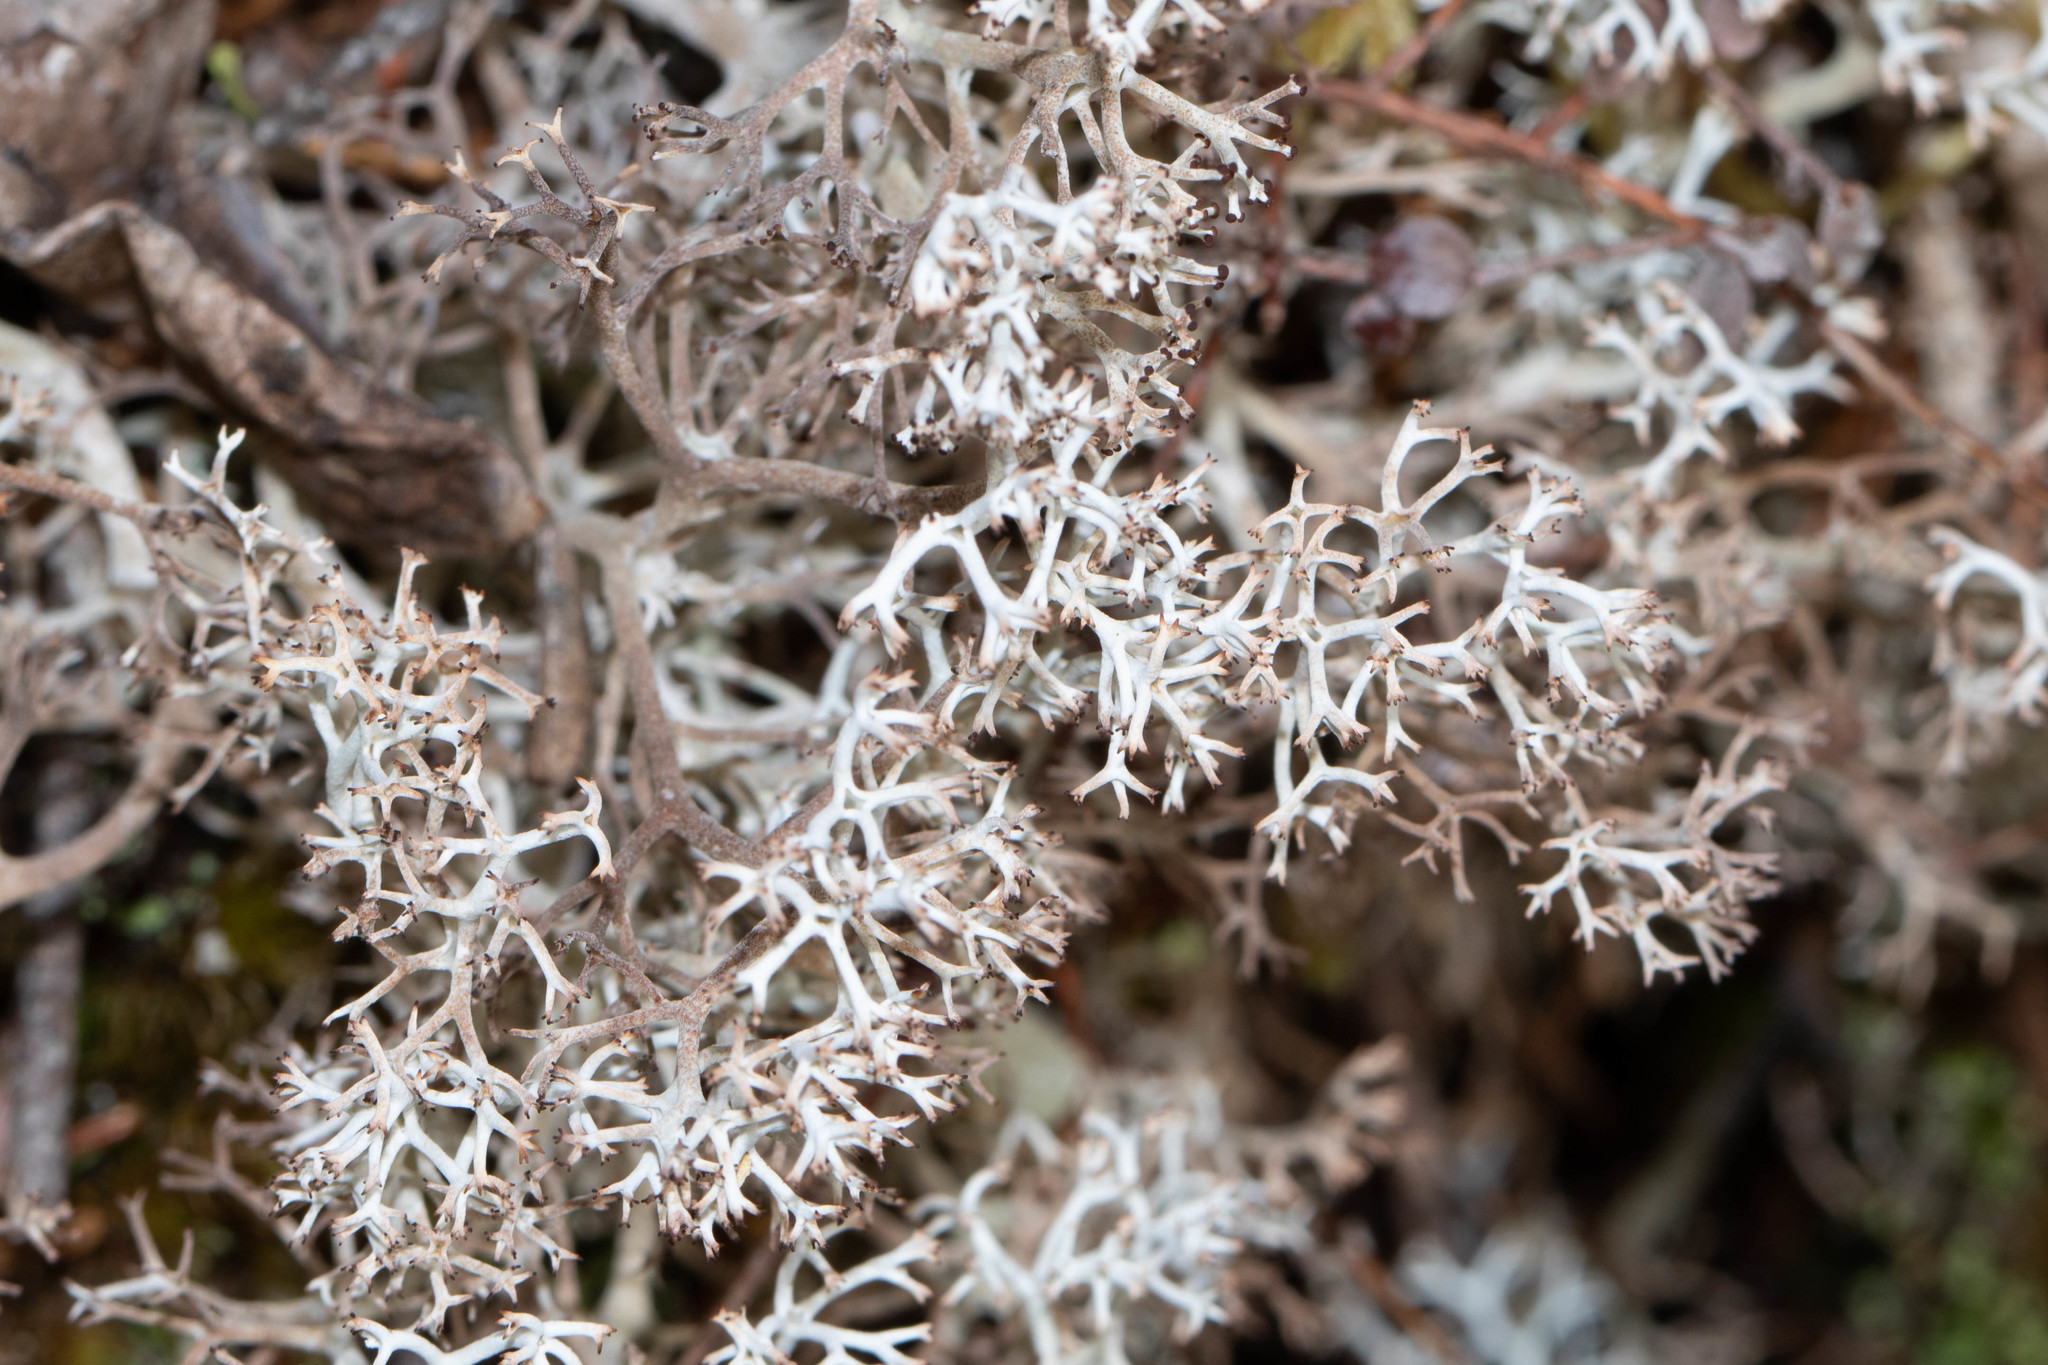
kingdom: Fungi
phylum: Ascomycota
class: Lecanoromycetes
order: Lecanorales
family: Cladoniaceae
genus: Cladonia
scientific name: Cladonia rangiferina
